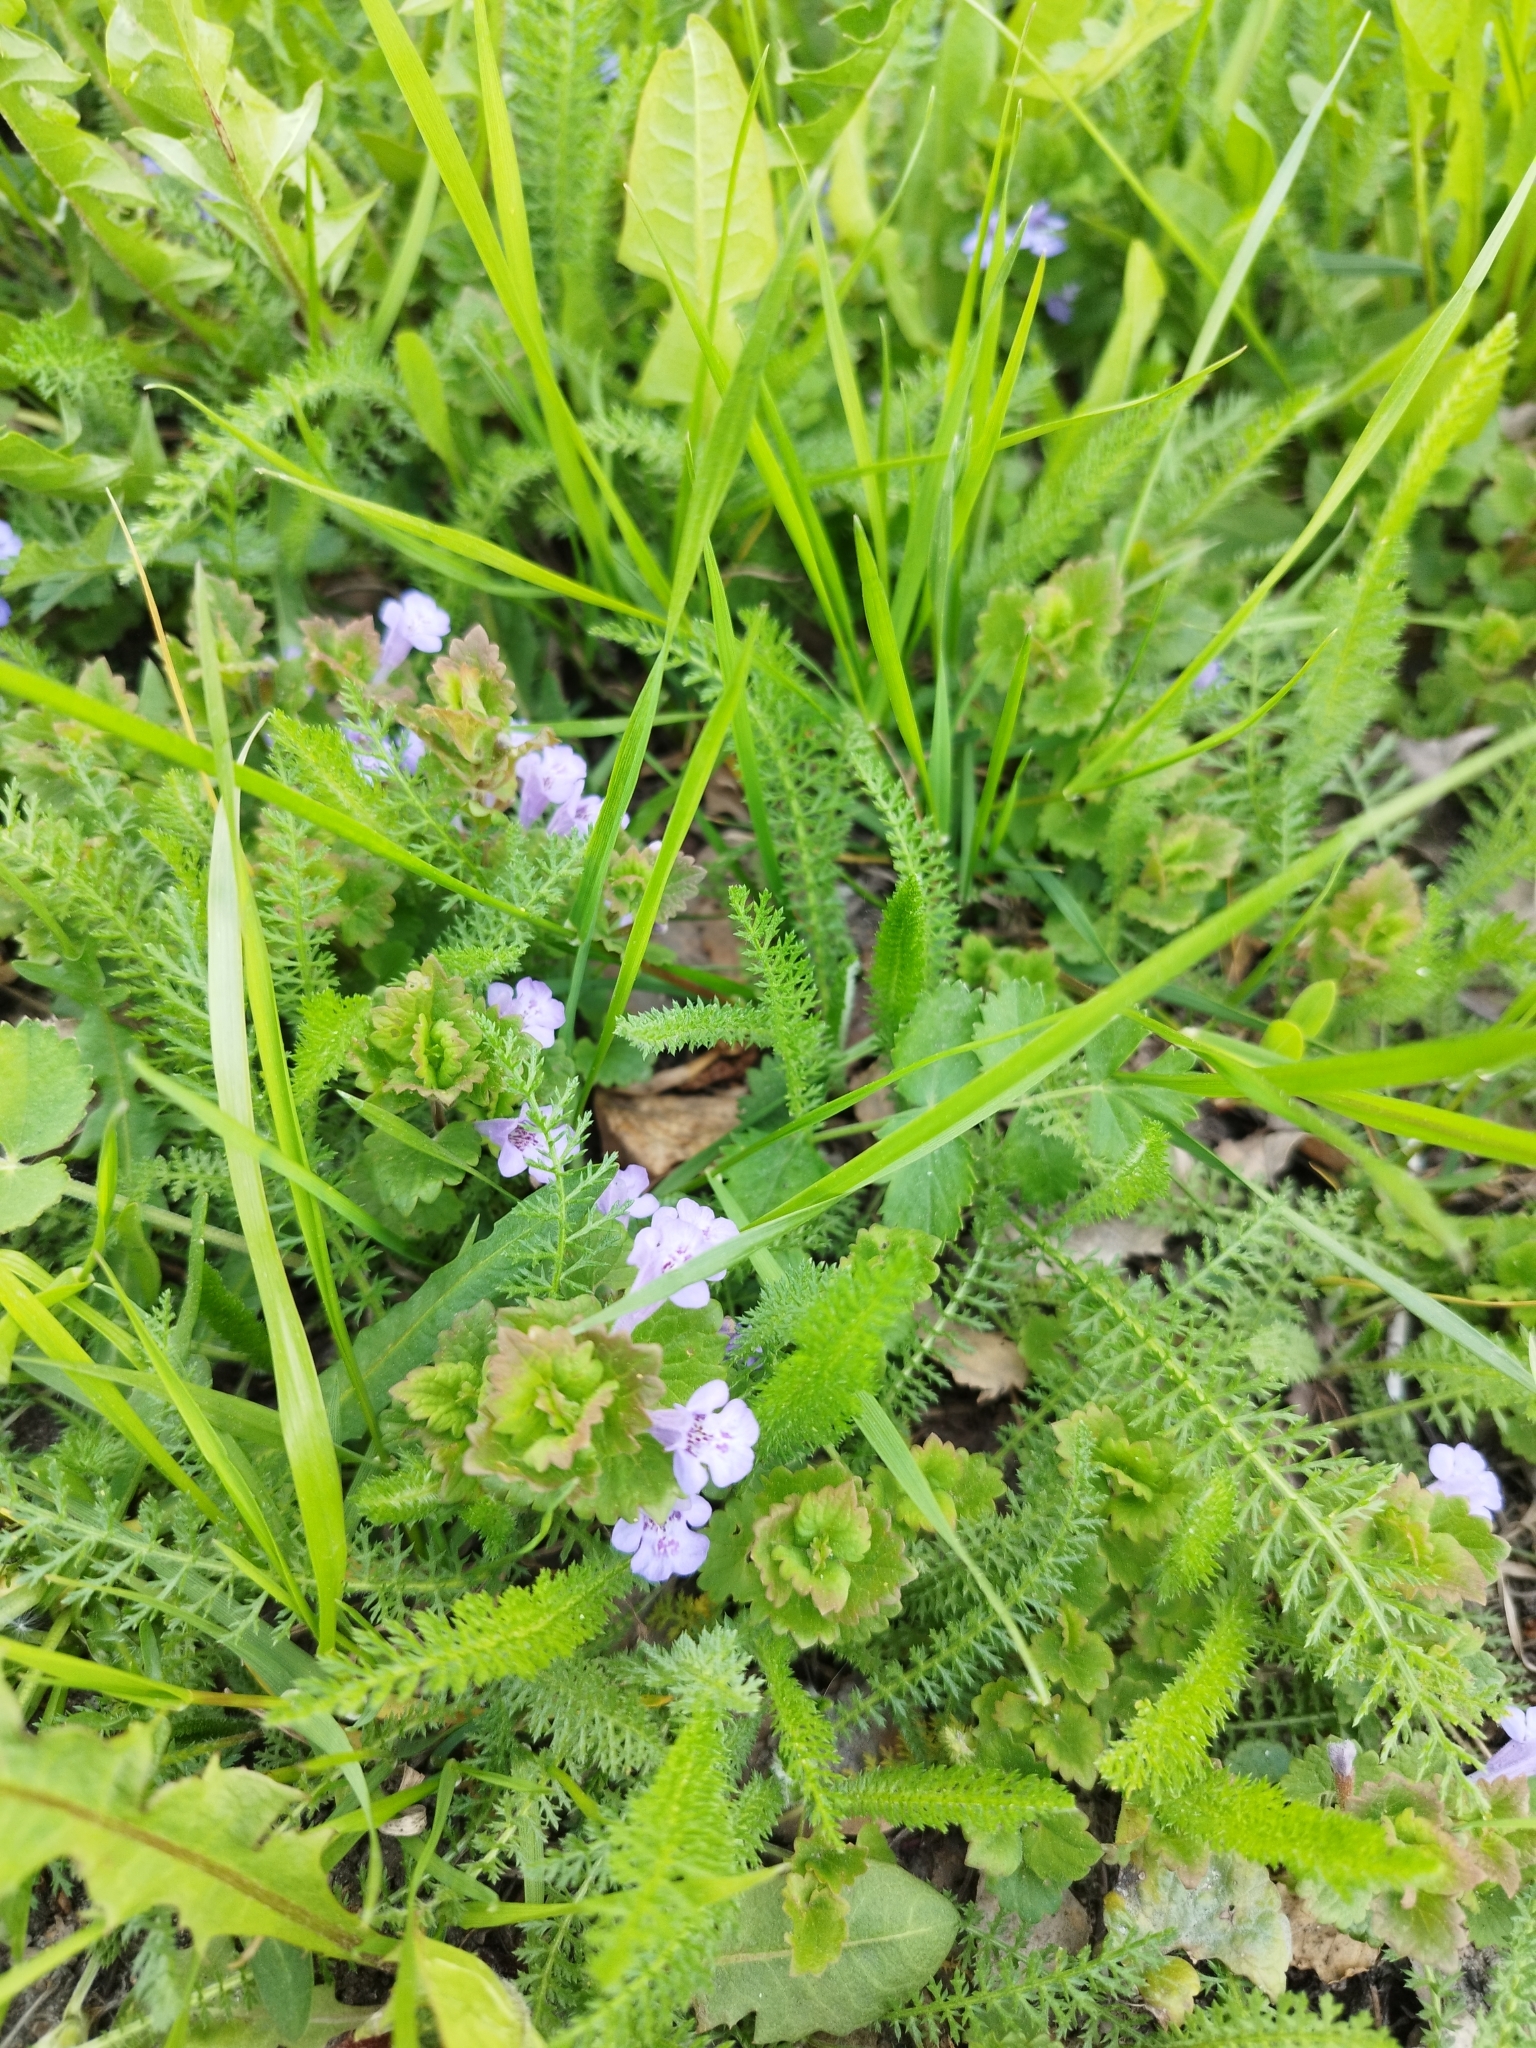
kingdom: Plantae
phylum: Tracheophyta
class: Magnoliopsida
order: Lamiales
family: Lamiaceae
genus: Glechoma
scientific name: Glechoma hederacea
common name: Ground ivy
